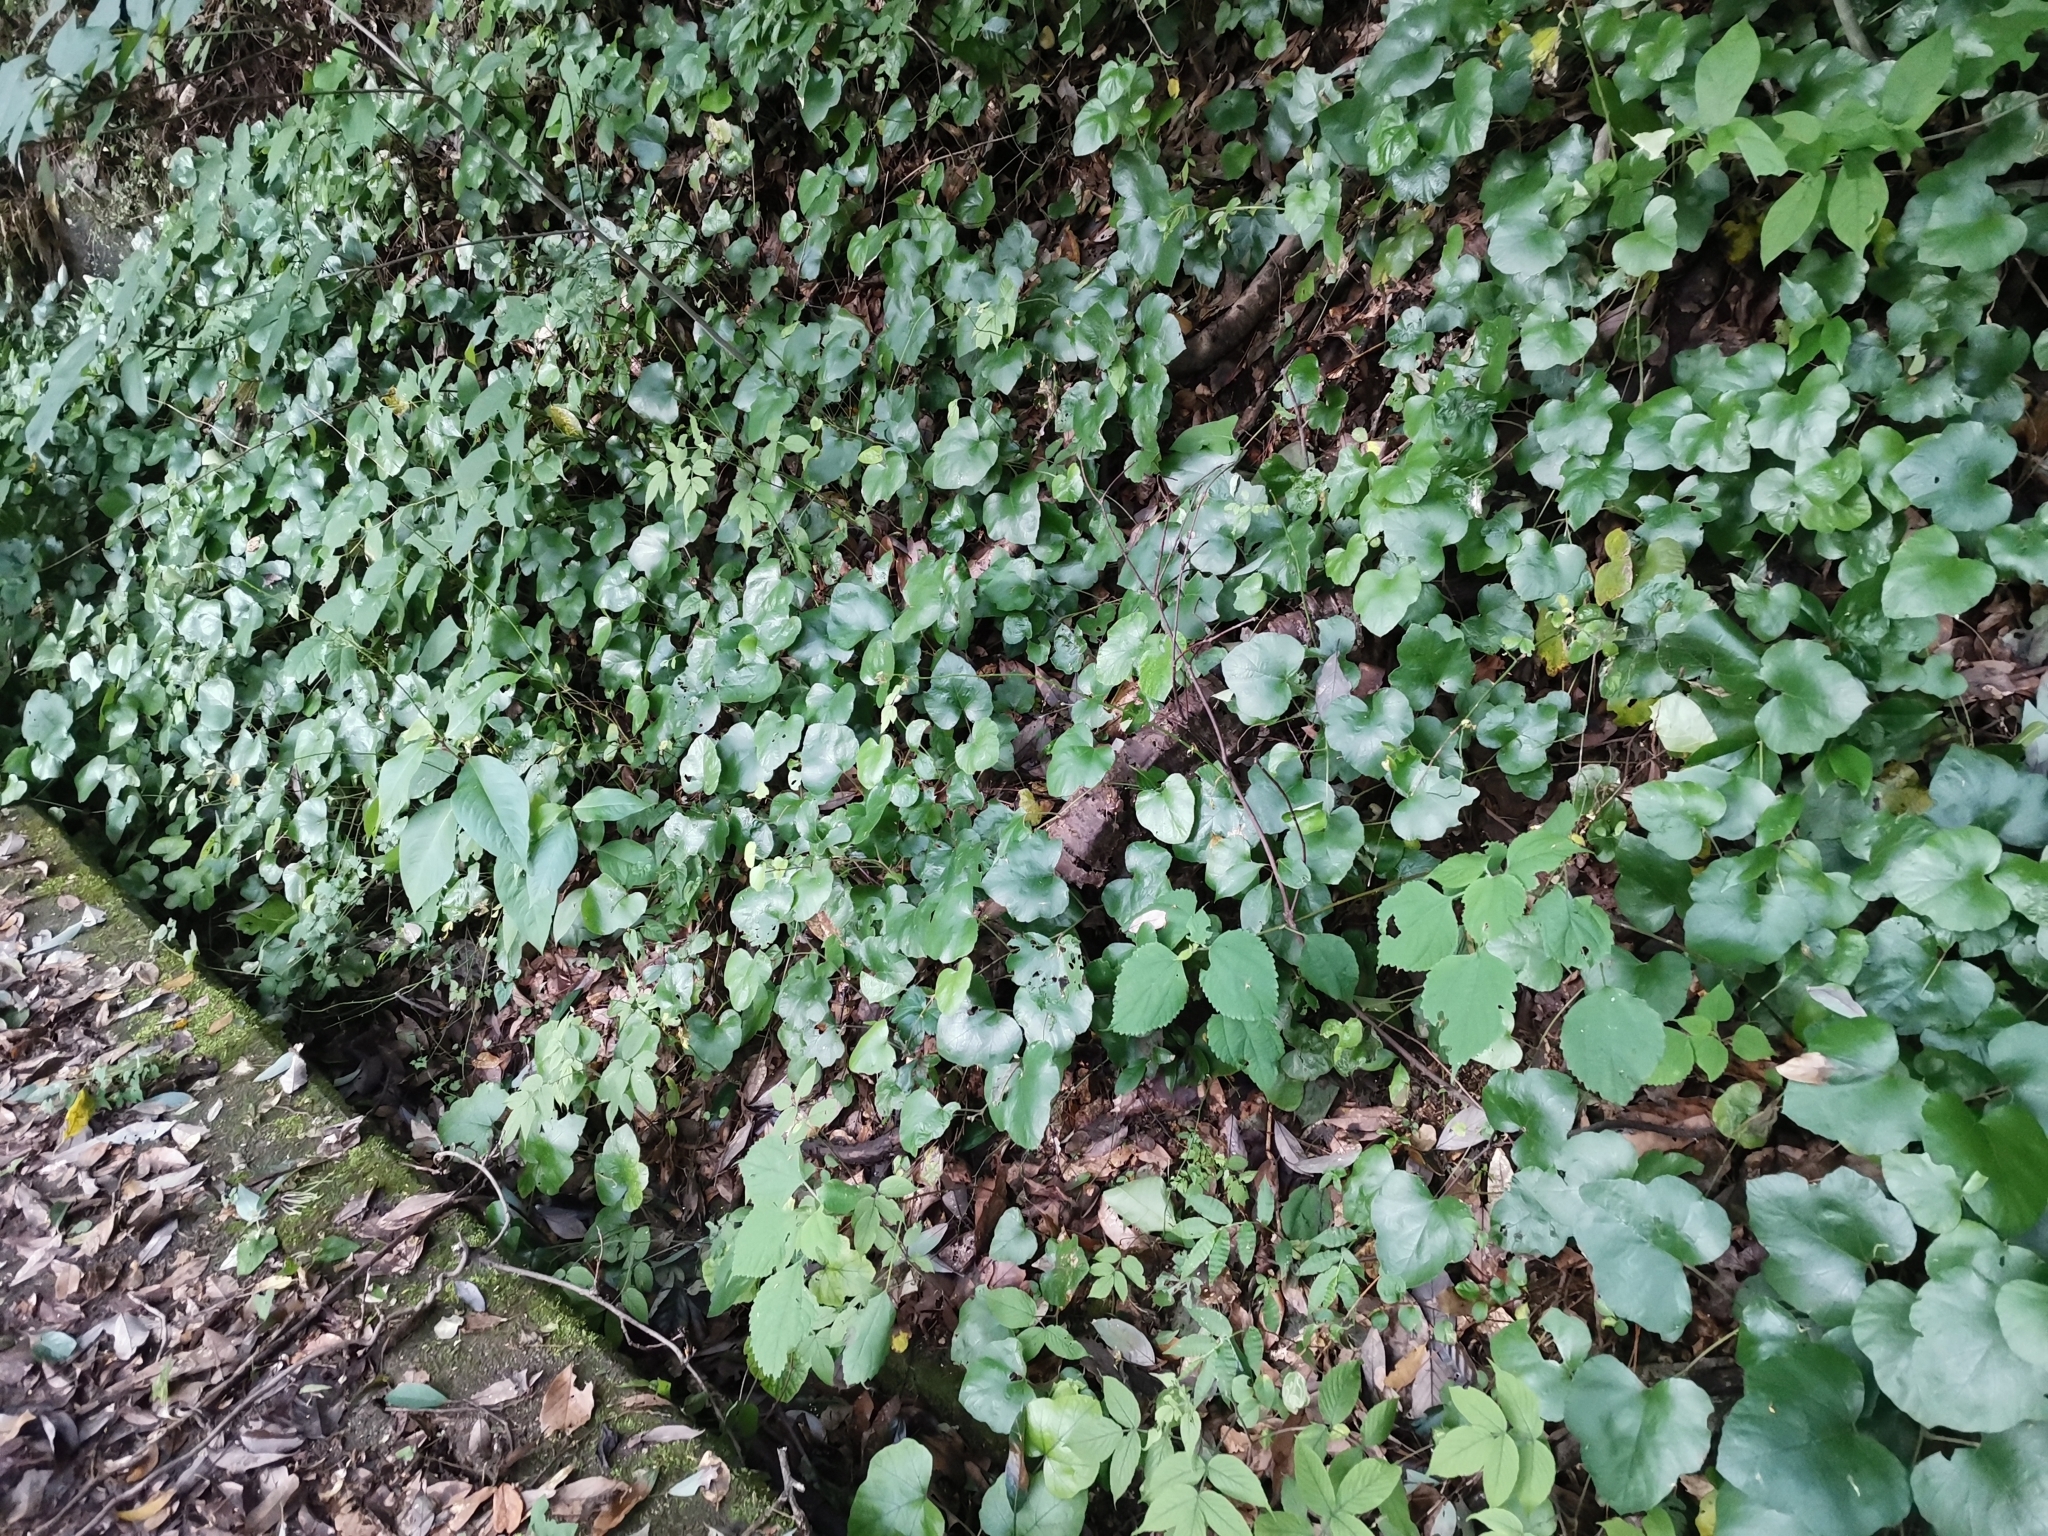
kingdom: Plantae
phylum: Tracheophyta
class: Magnoliopsida
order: Rosales
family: Rosaceae
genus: Rubus
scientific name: Rubus buergeri
